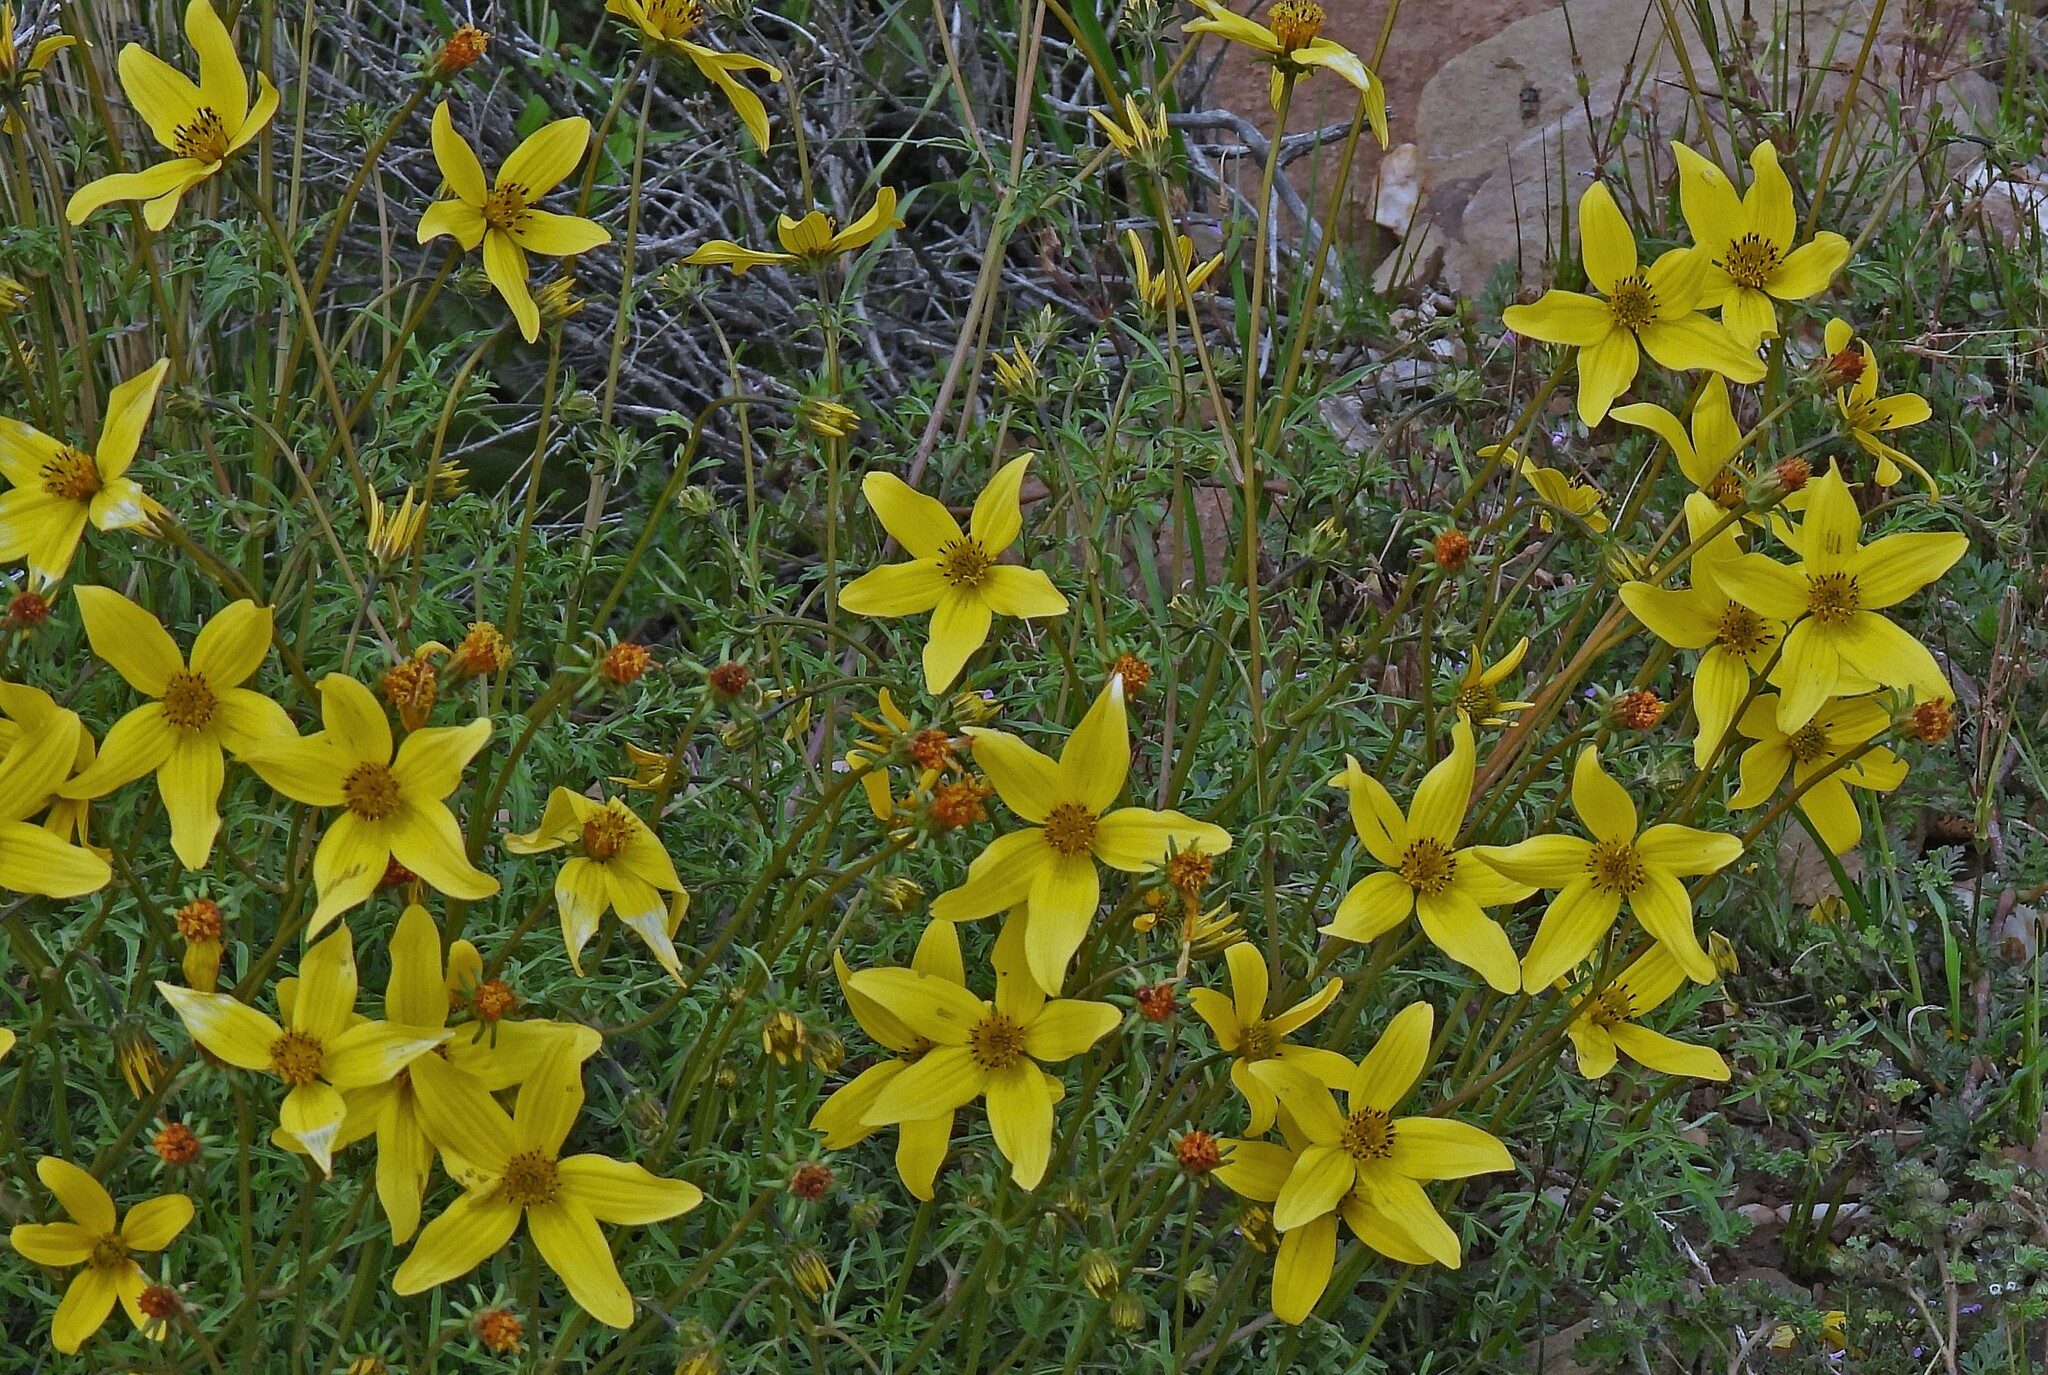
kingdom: Plantae
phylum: Tracheophyta
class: Magnoliopsida
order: Asterales
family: Asteraceae
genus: Bidens
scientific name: Bidens triplinervia
